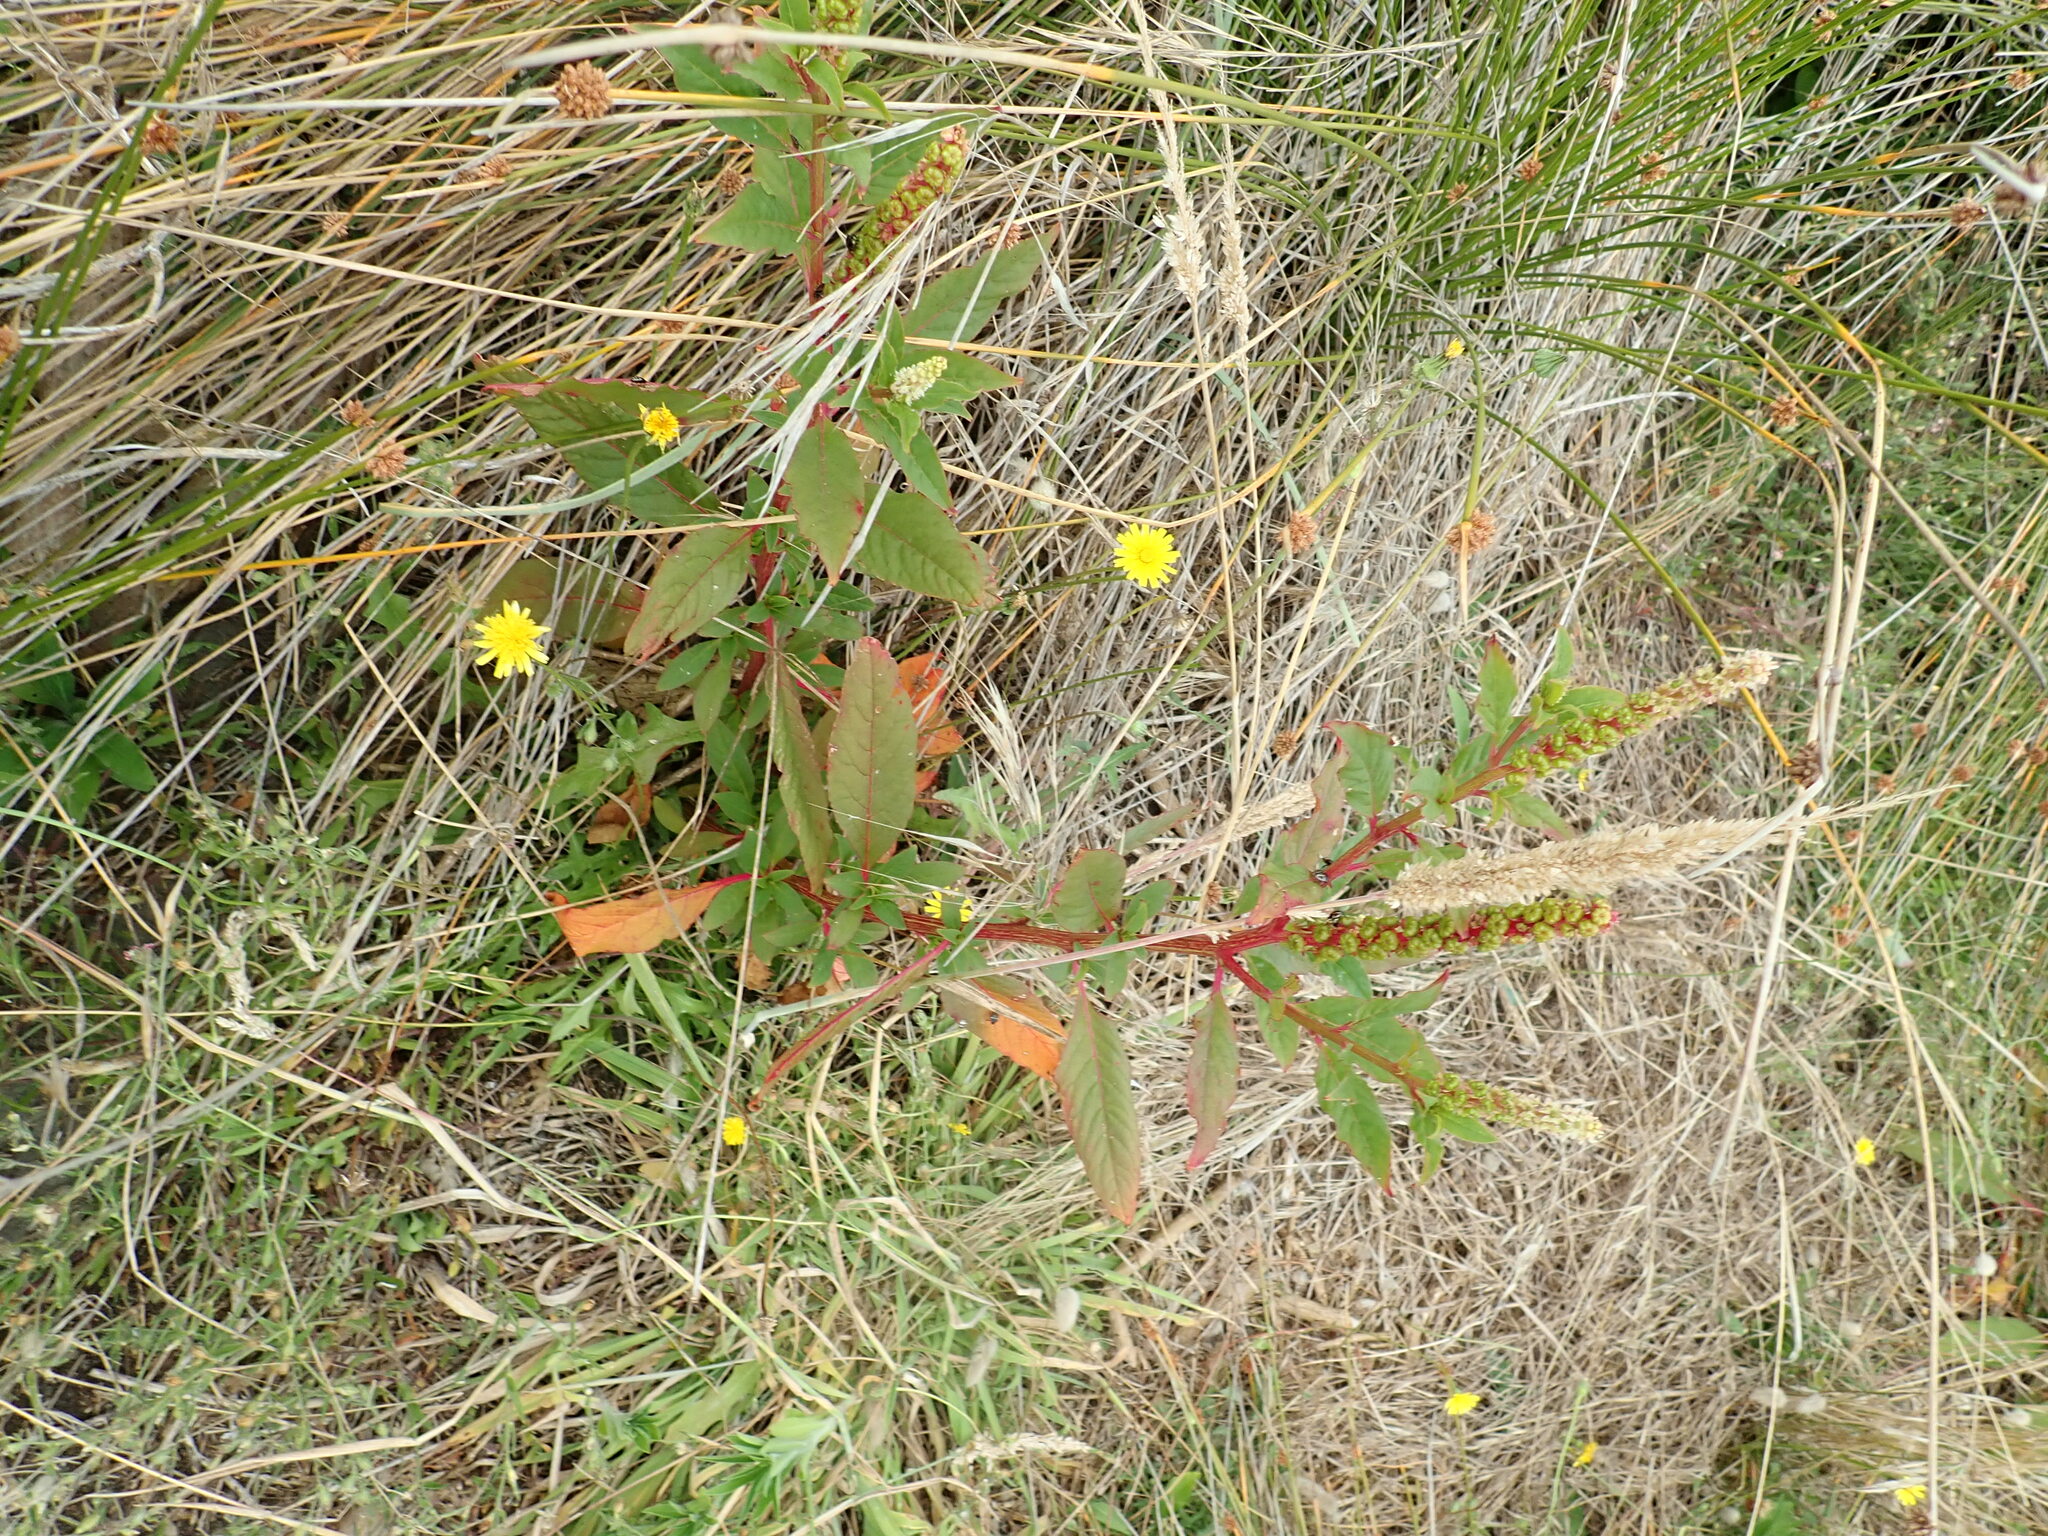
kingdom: Animalia
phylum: Arthropoda
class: Insecta
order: Hemiptera
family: Pentatomidae
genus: Nezara
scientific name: Nezara viridula
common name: Southern green stink bug
